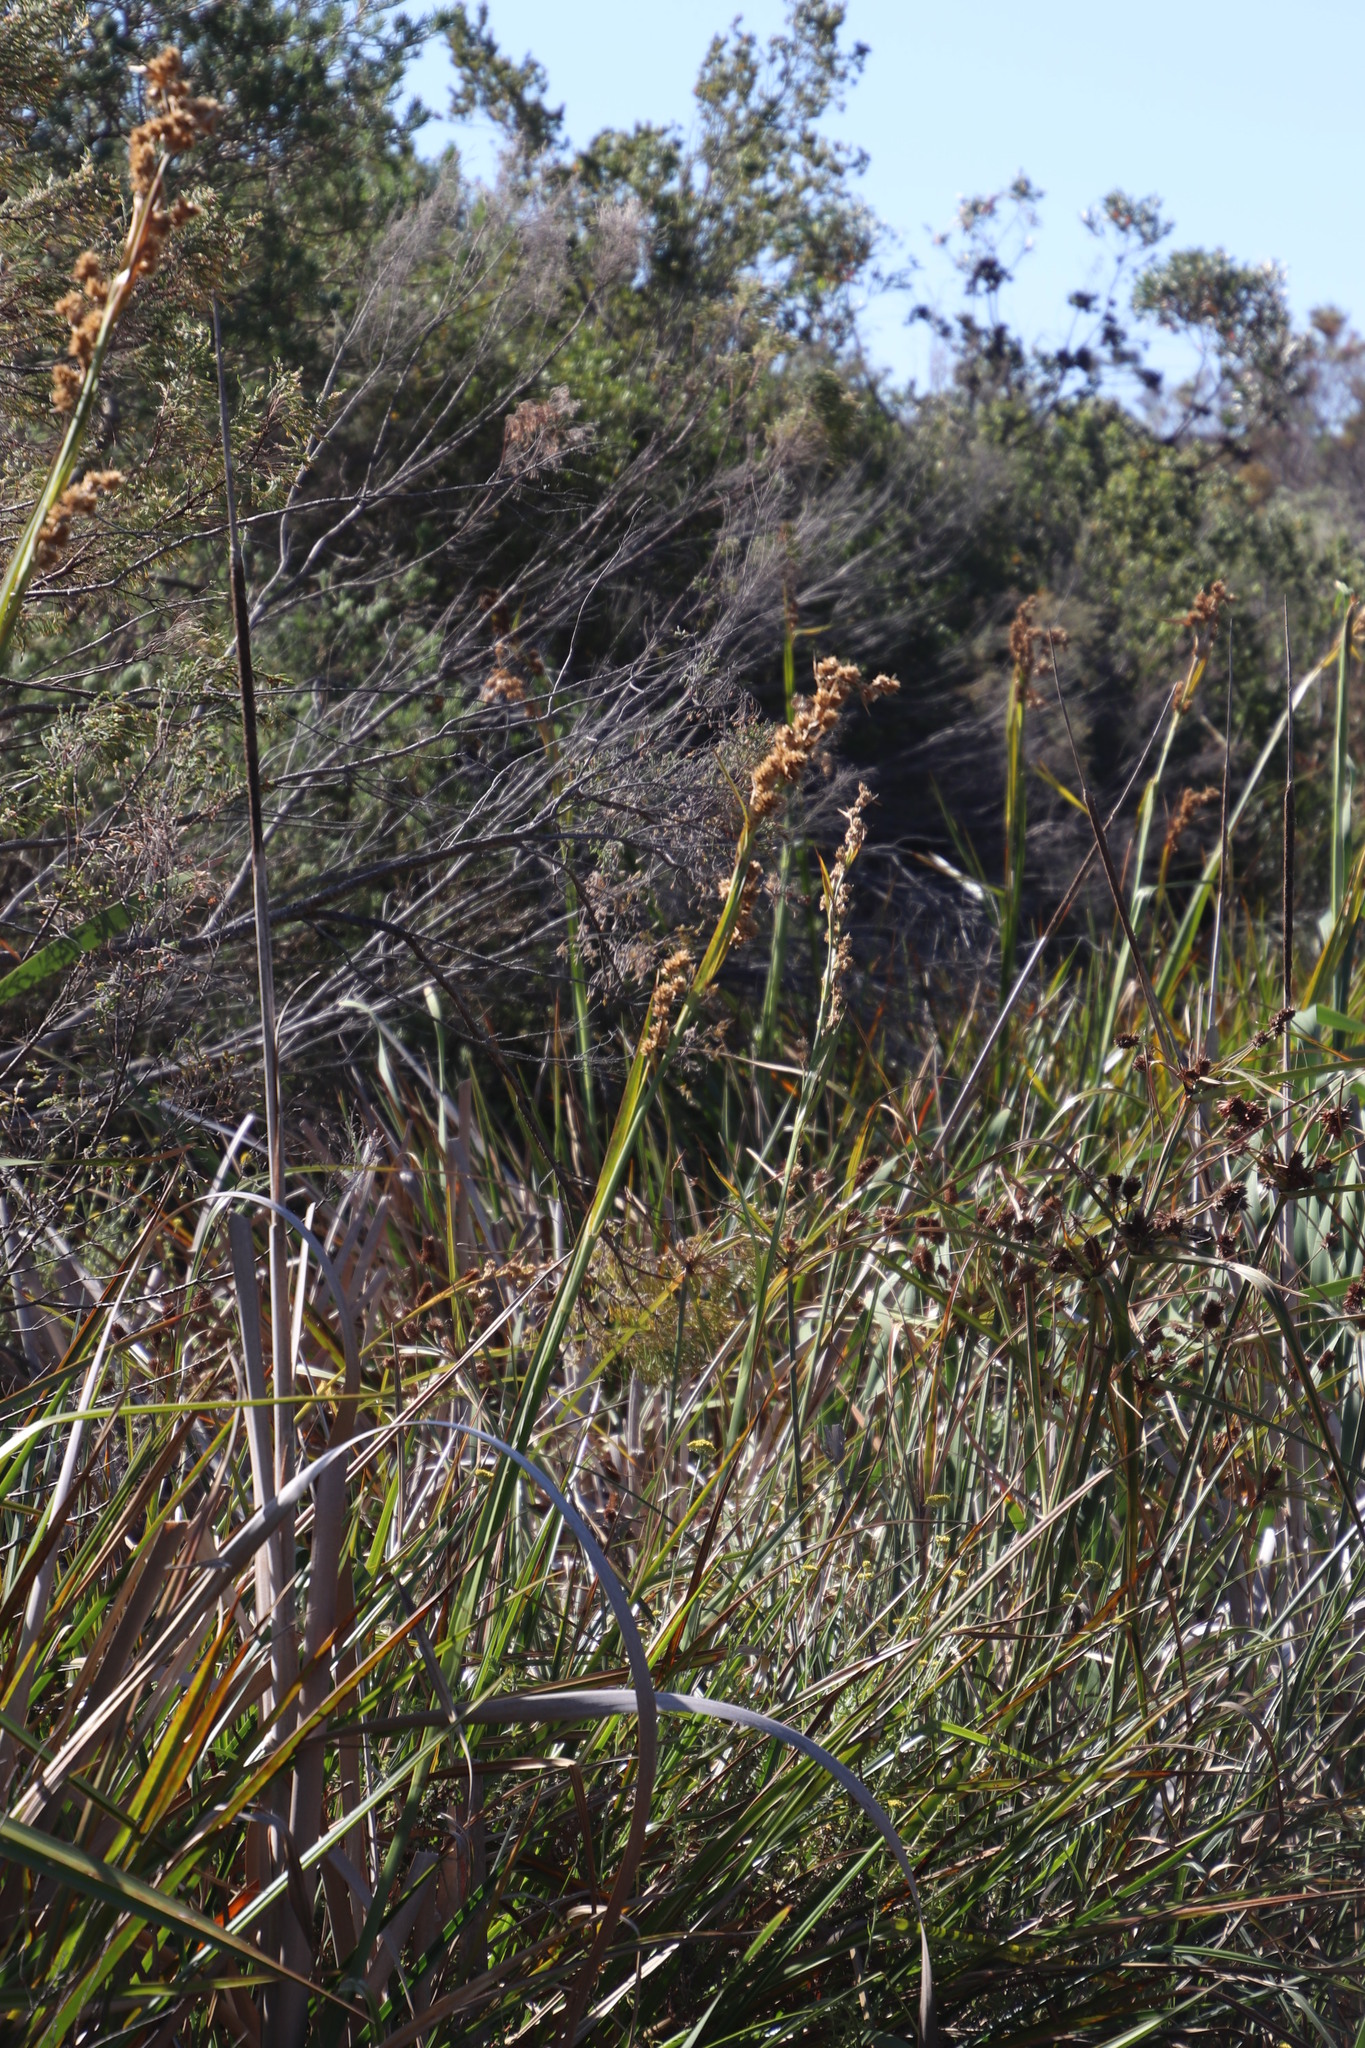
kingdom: Plantae
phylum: Tracheophyta
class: Liliopsida
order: Poales
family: Cyperaceae
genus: Carpha
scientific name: Carpha glomerata
